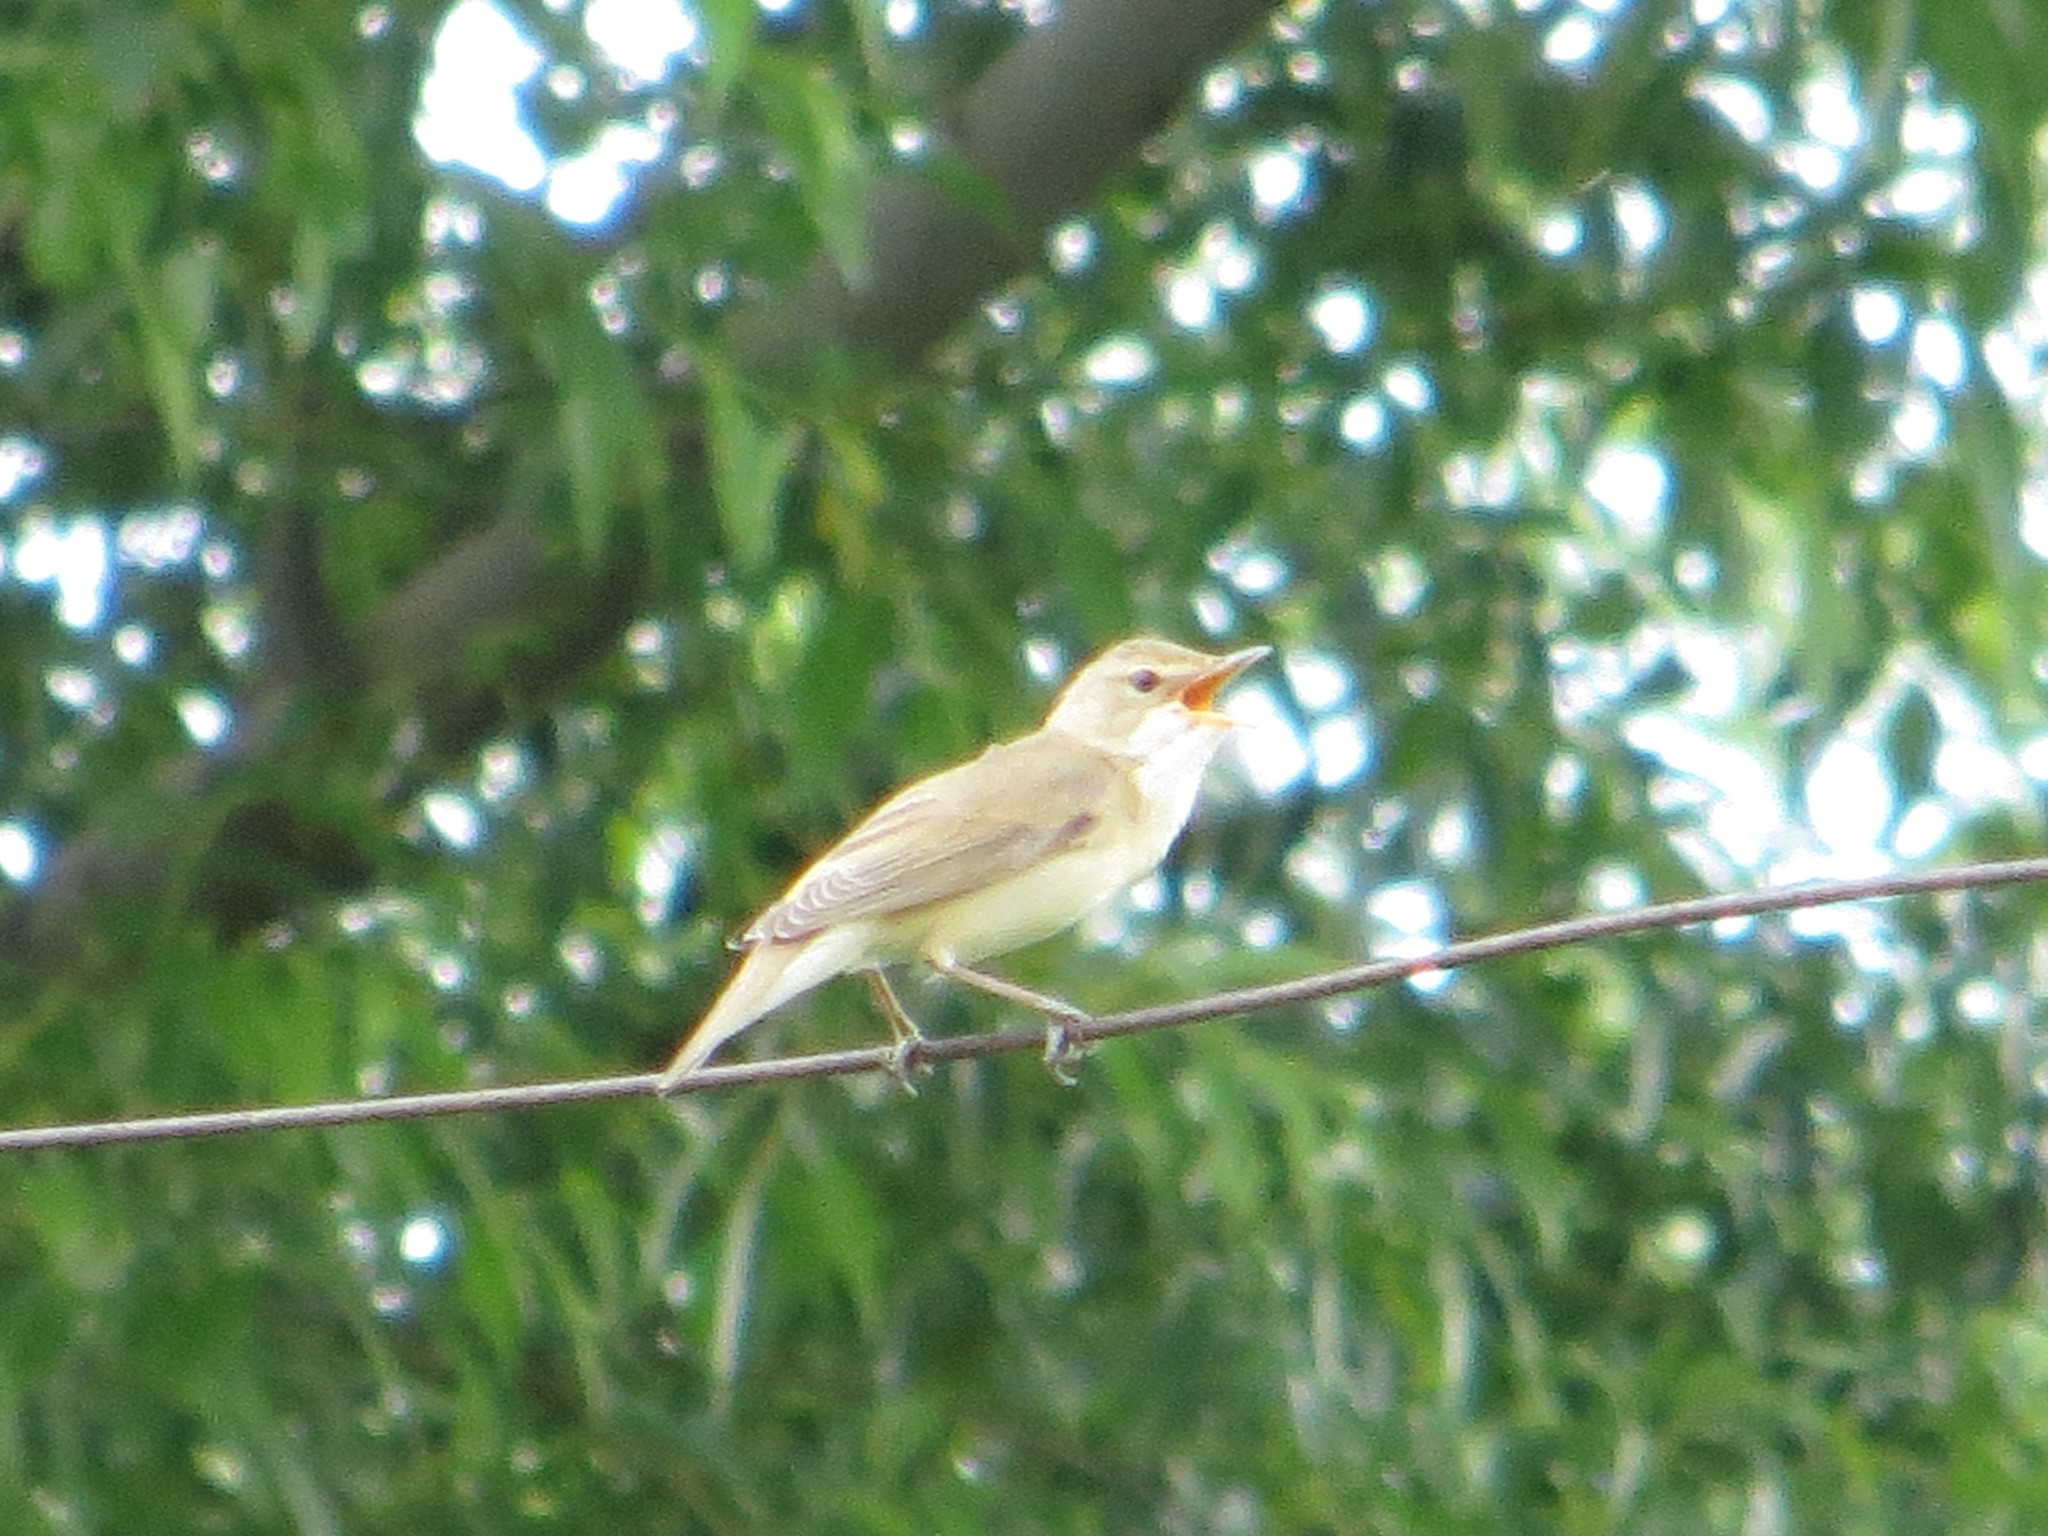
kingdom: Animalia
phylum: Chordata
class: Aves
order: Passeriformes
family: Acrocephalidae
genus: Acrocephalus
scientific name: Acrocephalus palustris
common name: Marsh warbler
